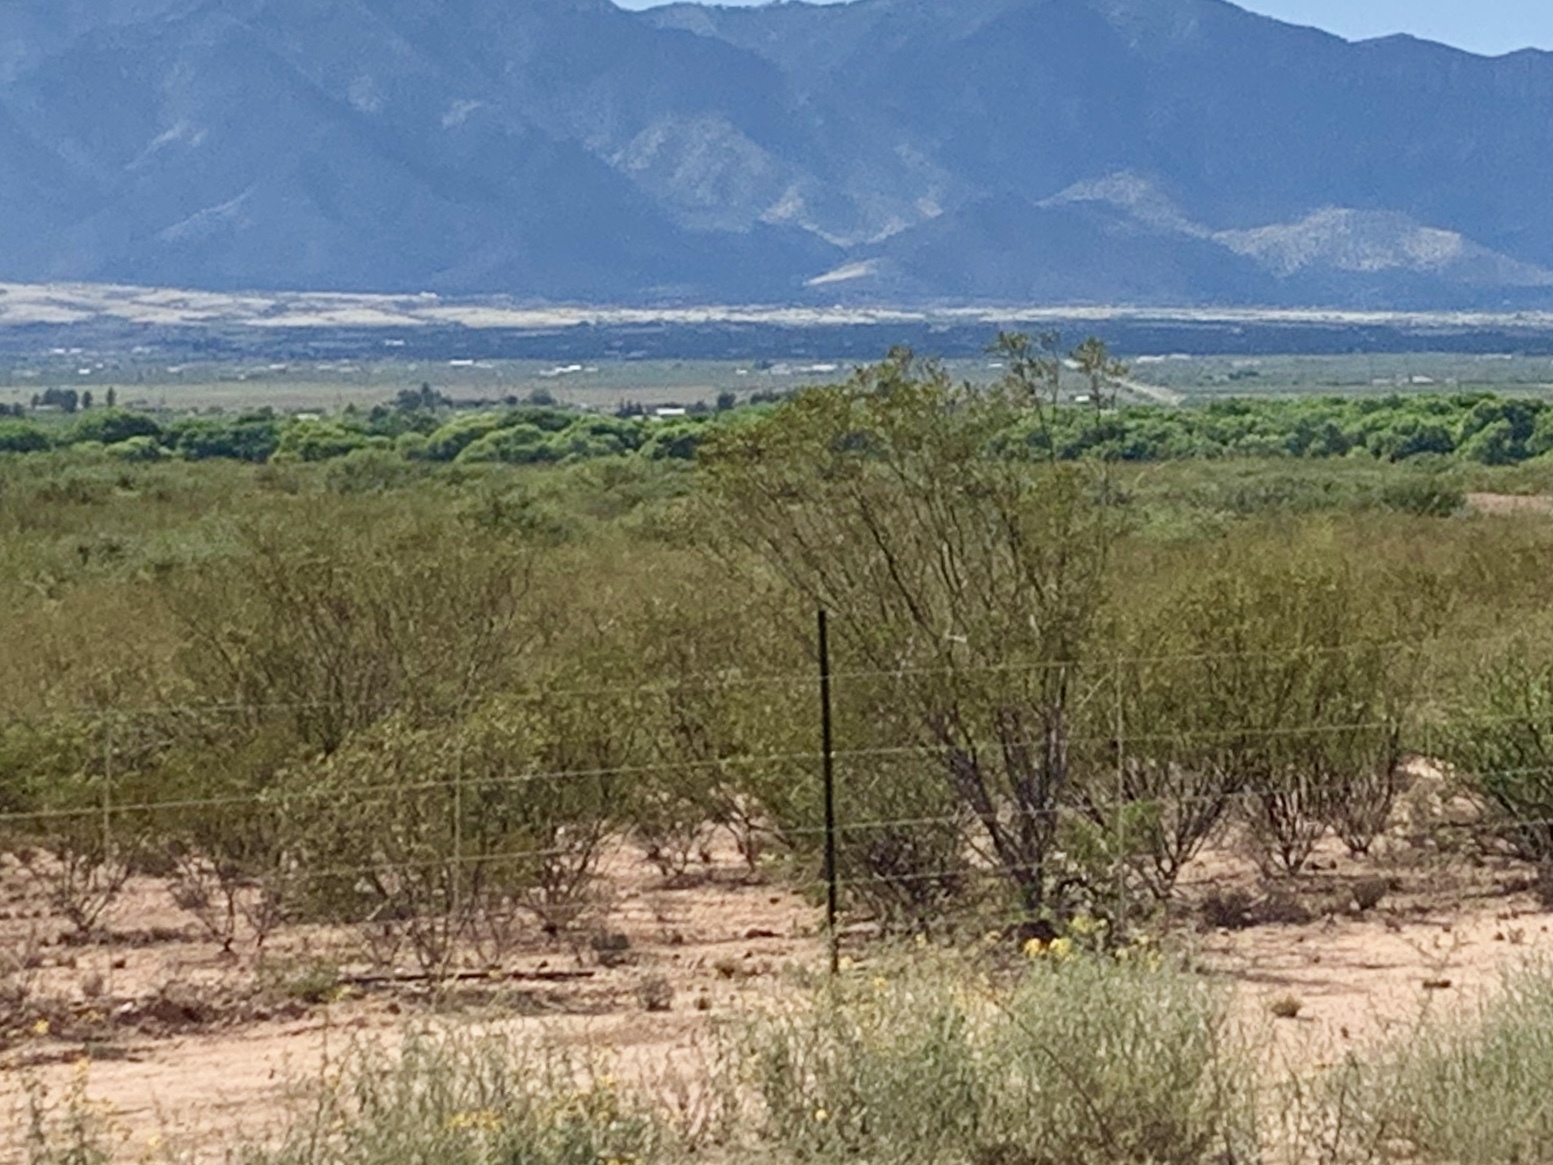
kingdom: Plantae
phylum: Tracheophyta
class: Magnoliopsida
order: Zygophyllales
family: Zygophyllaceae
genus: Larrea
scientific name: Larrea tridentata
